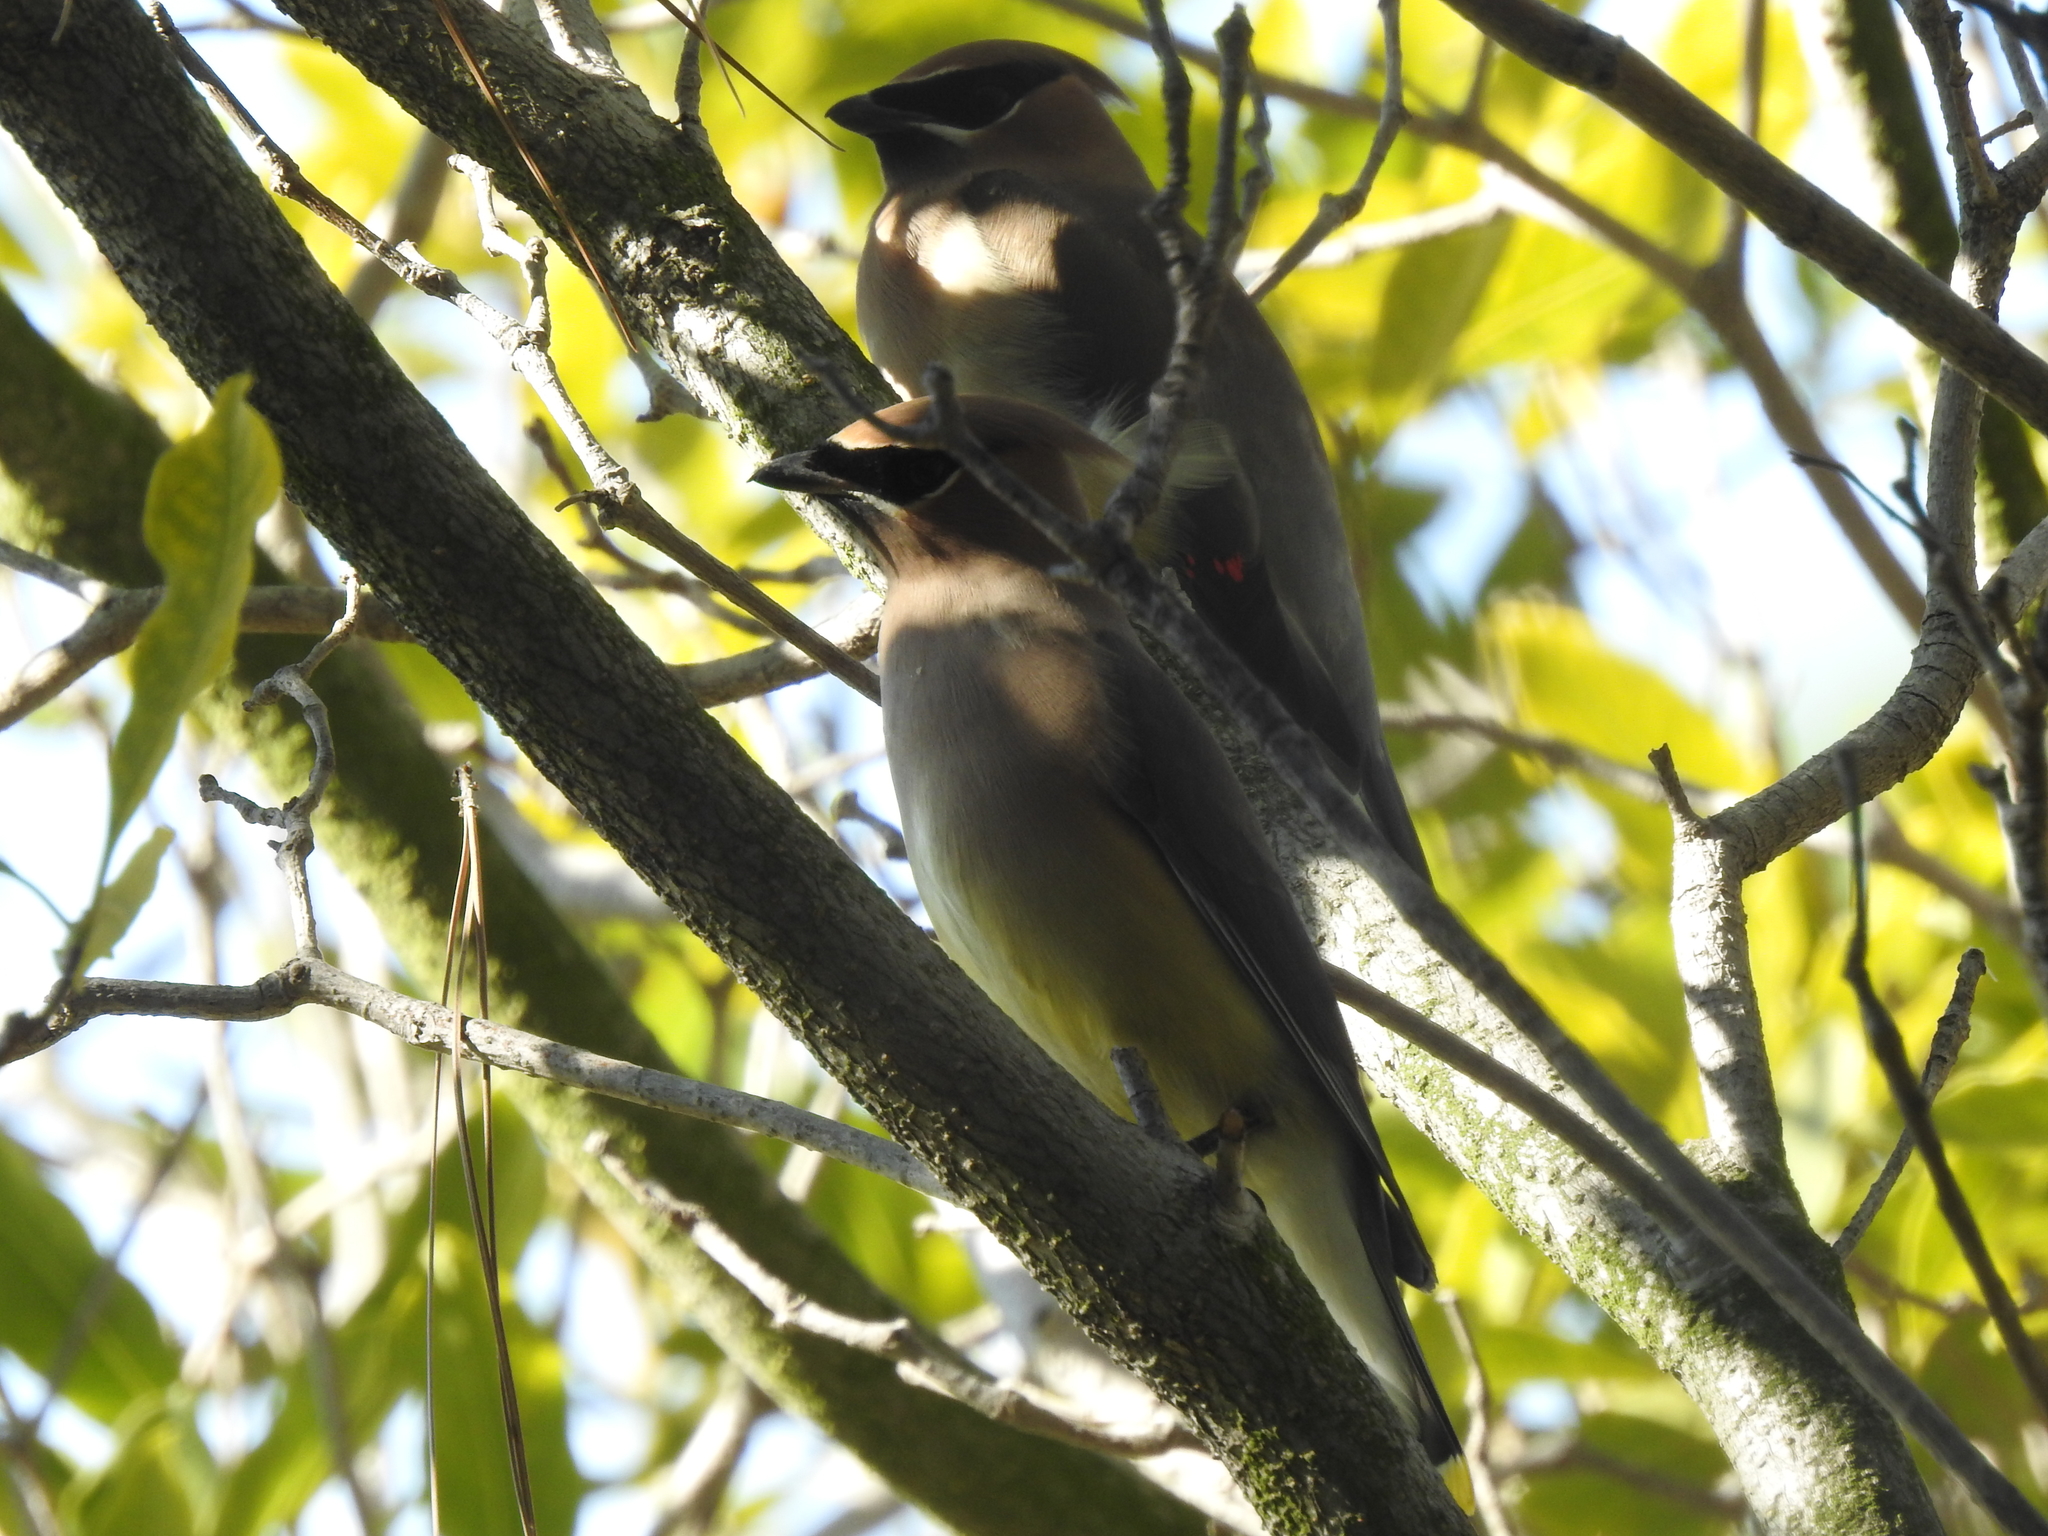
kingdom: Animalia
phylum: Chordata
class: Aves
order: Passeriformes
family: Bombycillidae
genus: Bombycilla
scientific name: Bombycilla cedrorum
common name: Cedar waxwing
